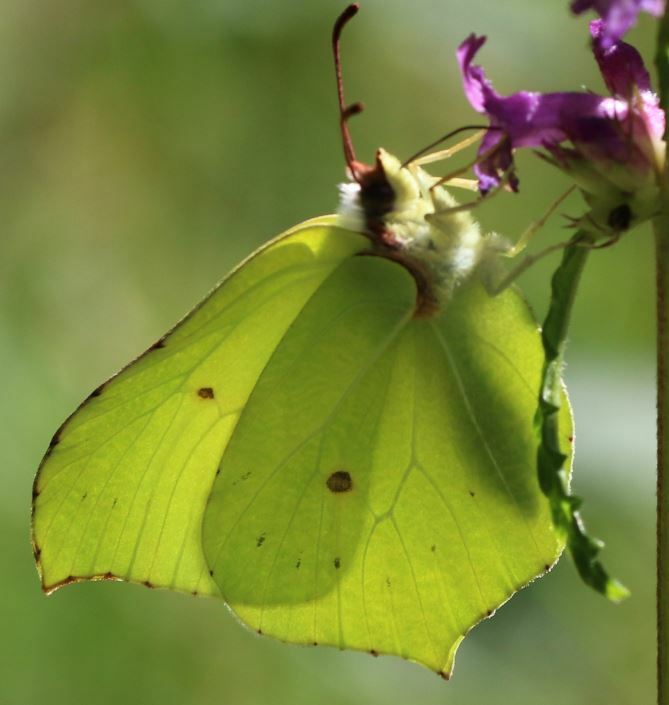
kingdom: Animalia
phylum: Arthropoda
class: Insecta
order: Lepidoptera
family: Pieridae
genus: Gonepteryx
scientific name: Gonepteryx rhamni
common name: Brimstone
